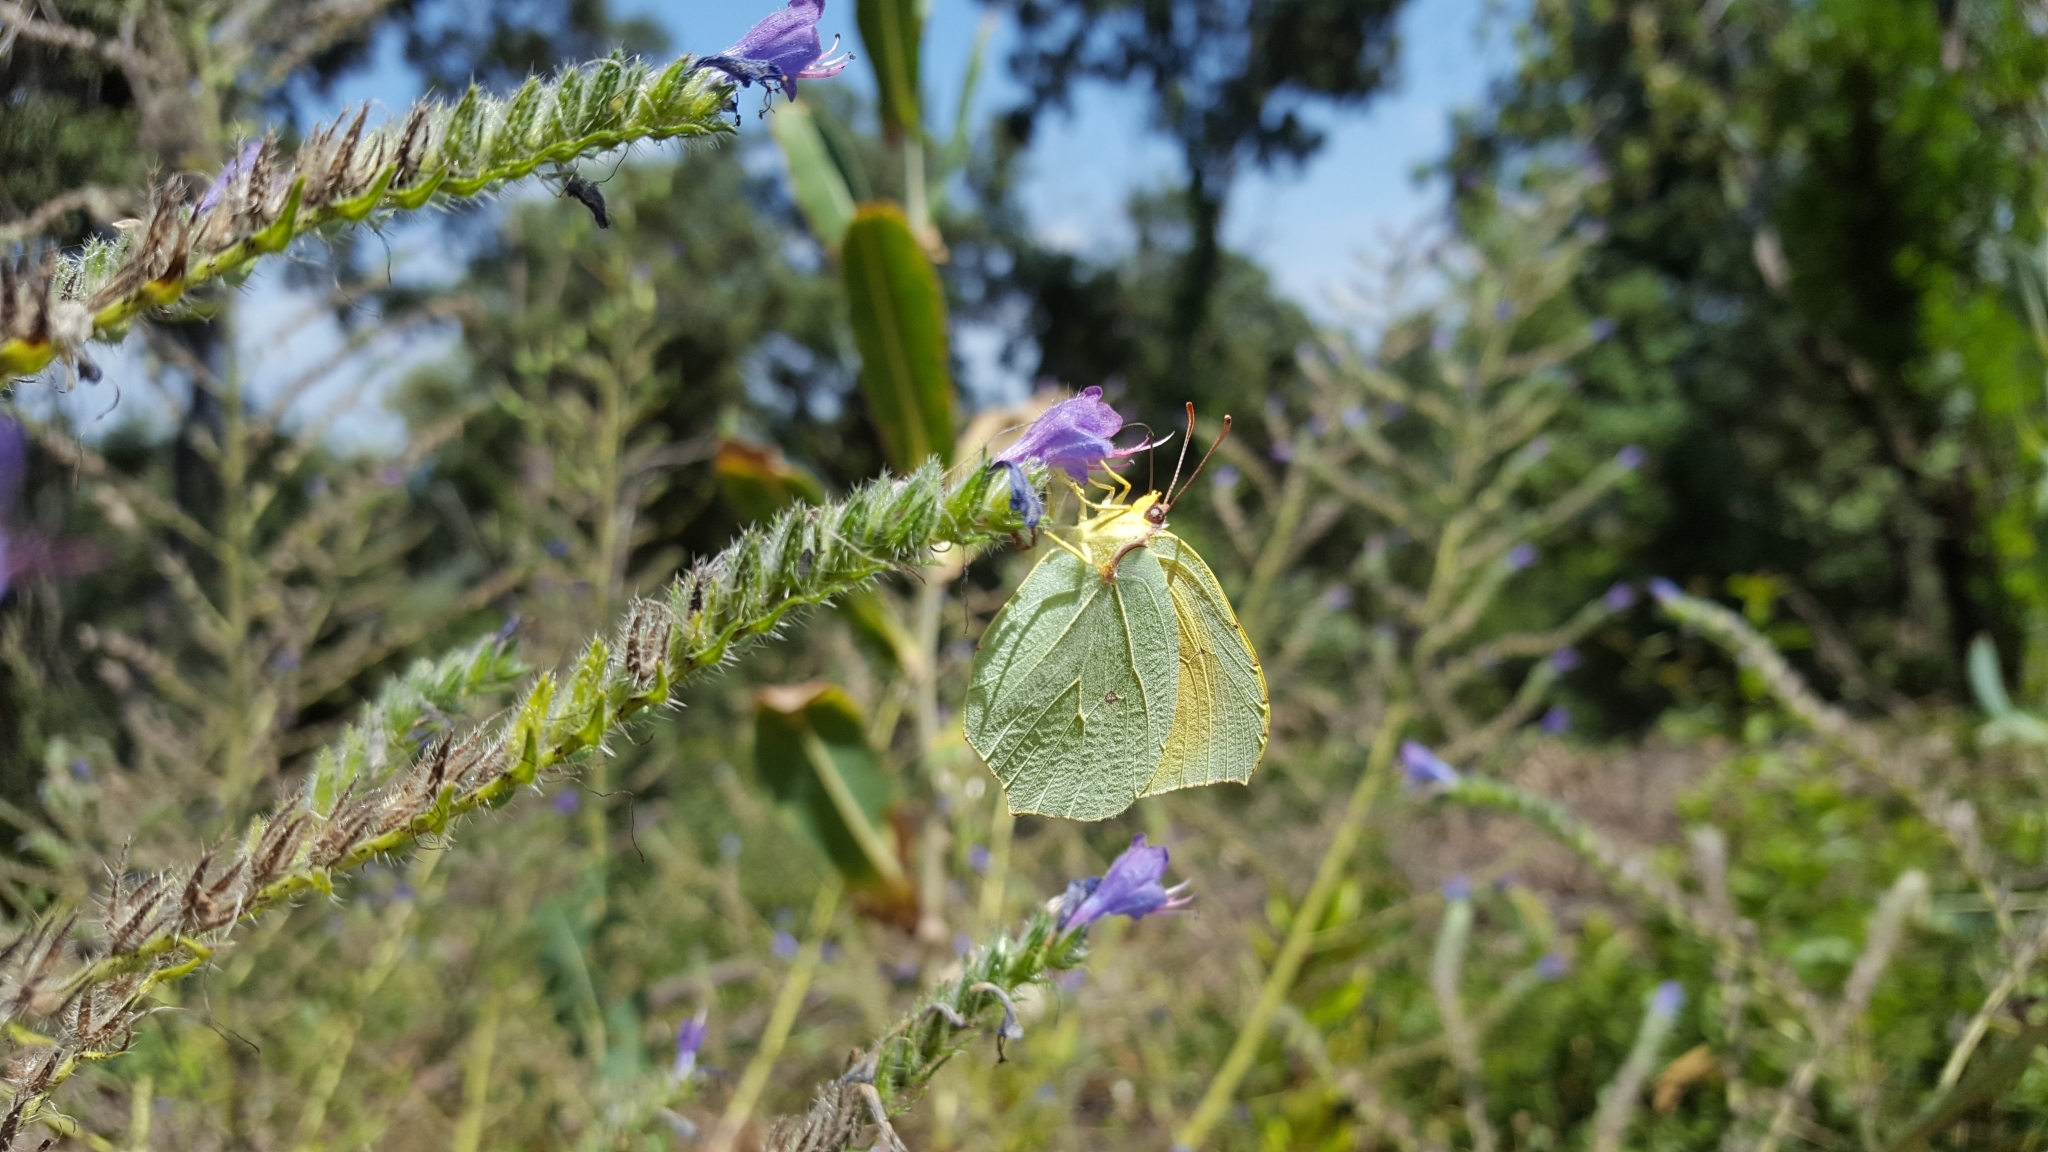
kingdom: Animalia
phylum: Arthropoda
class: Insecta
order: Lepidoptera
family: Pieridae
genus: Gonepteryx
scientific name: Gonepteryx cleopatra
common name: Cleopatra
